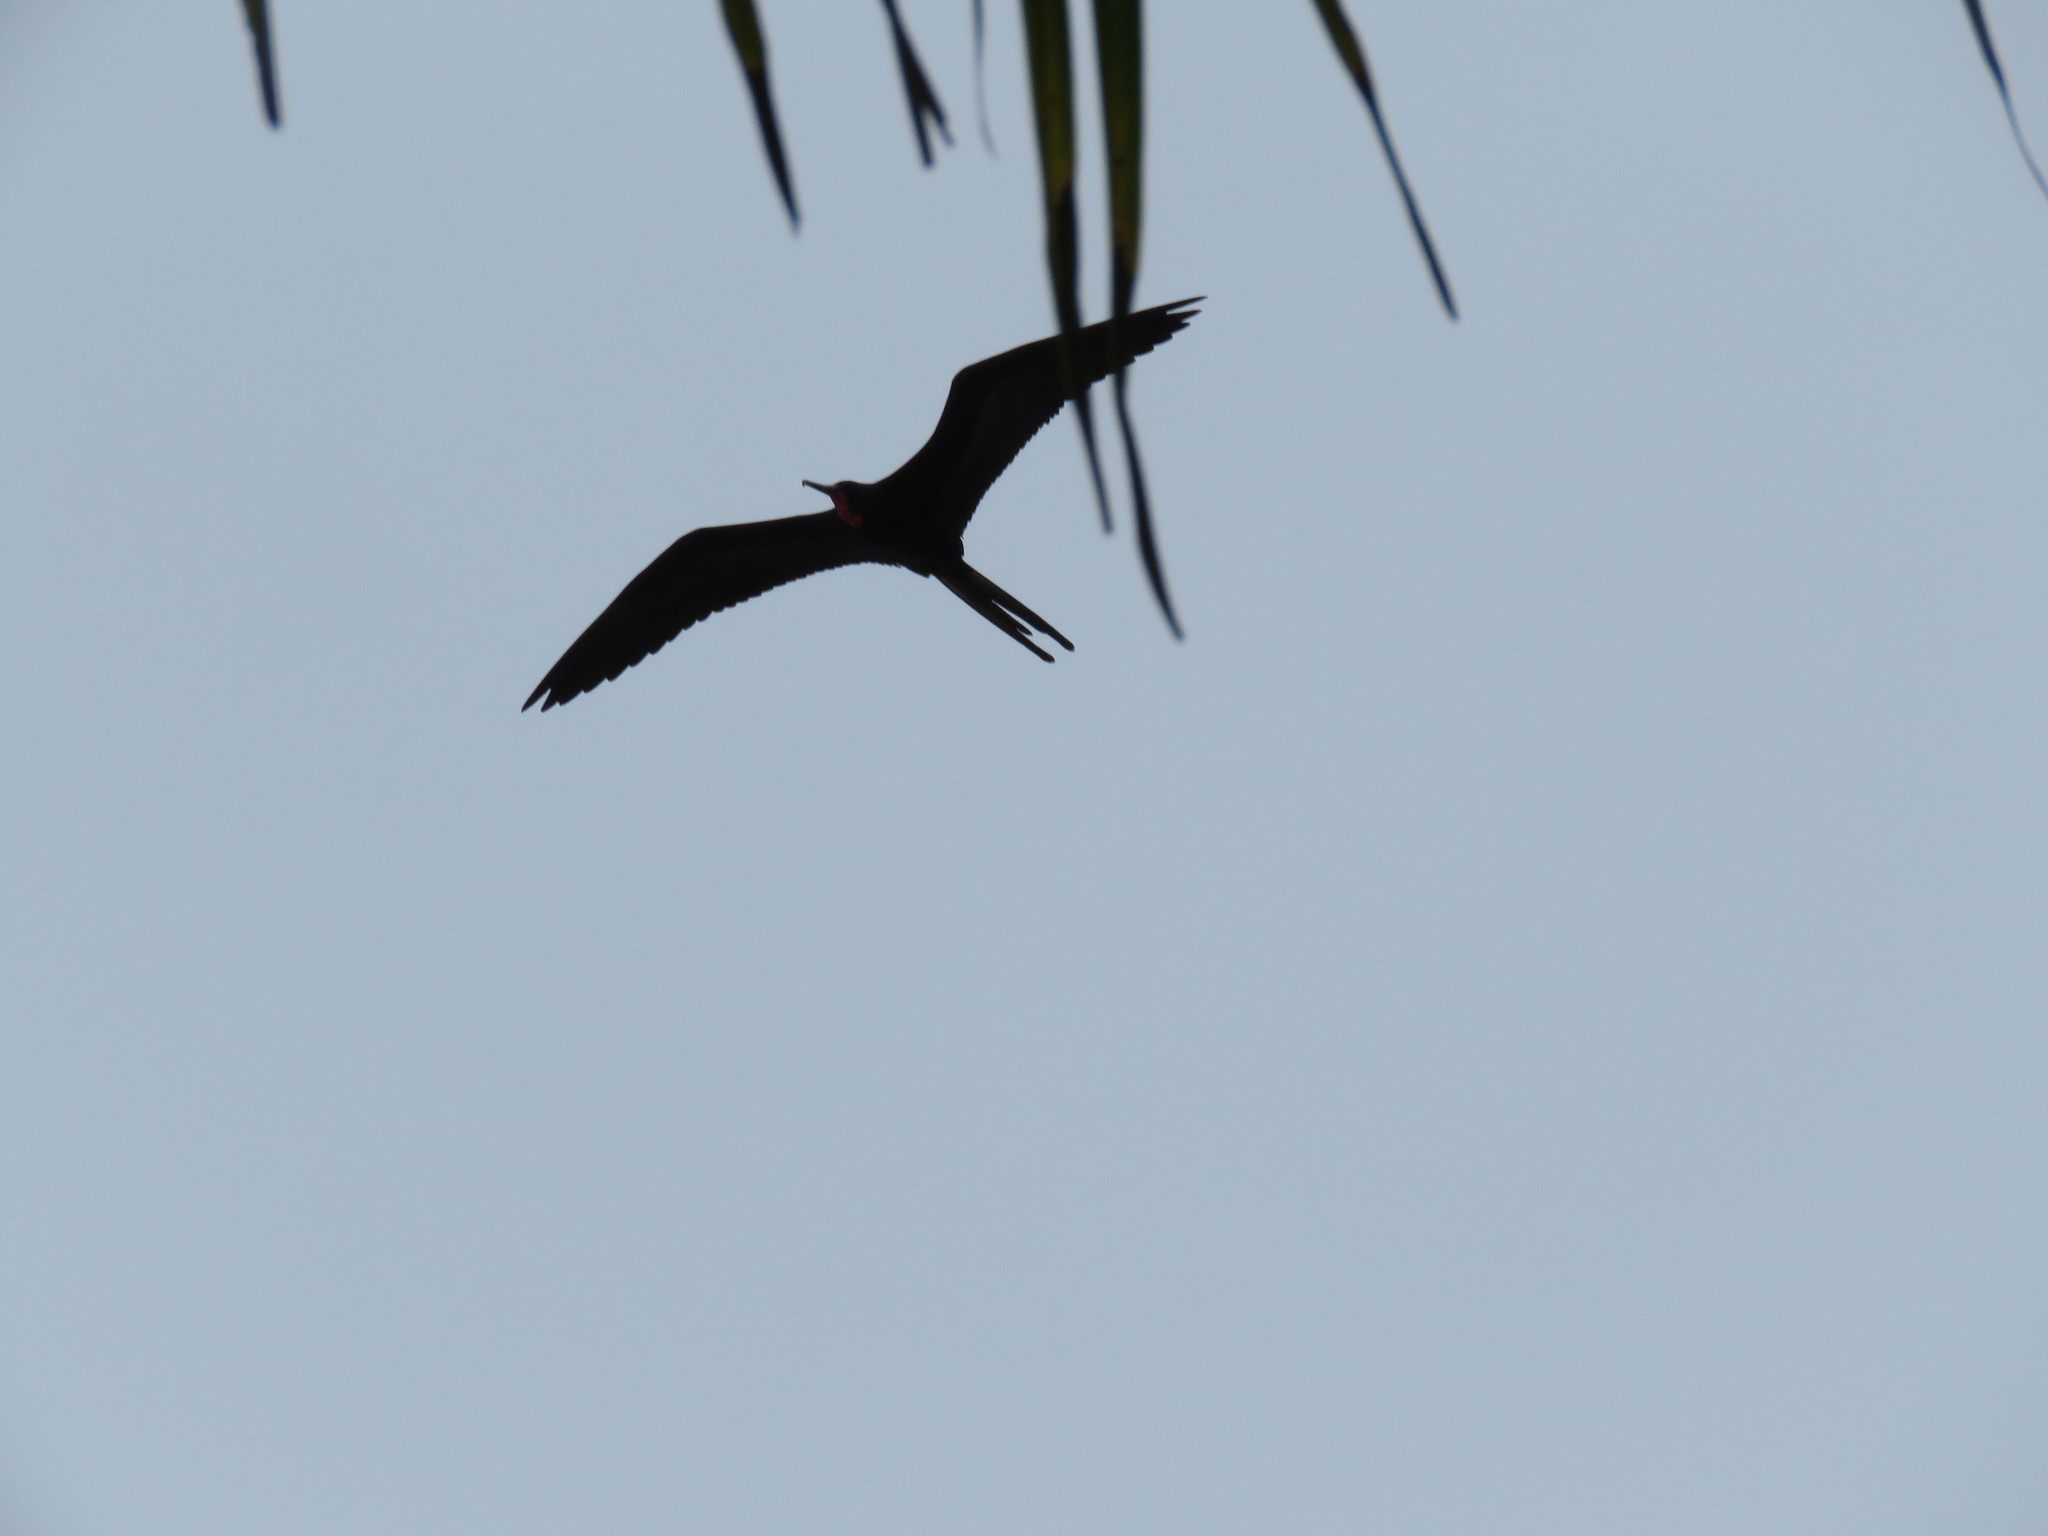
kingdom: Animalia
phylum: Chordata
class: Aves
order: Suliformes
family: Fregatidae
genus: Fregata
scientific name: Fregata magnificens
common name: Magnificent frigatebird
